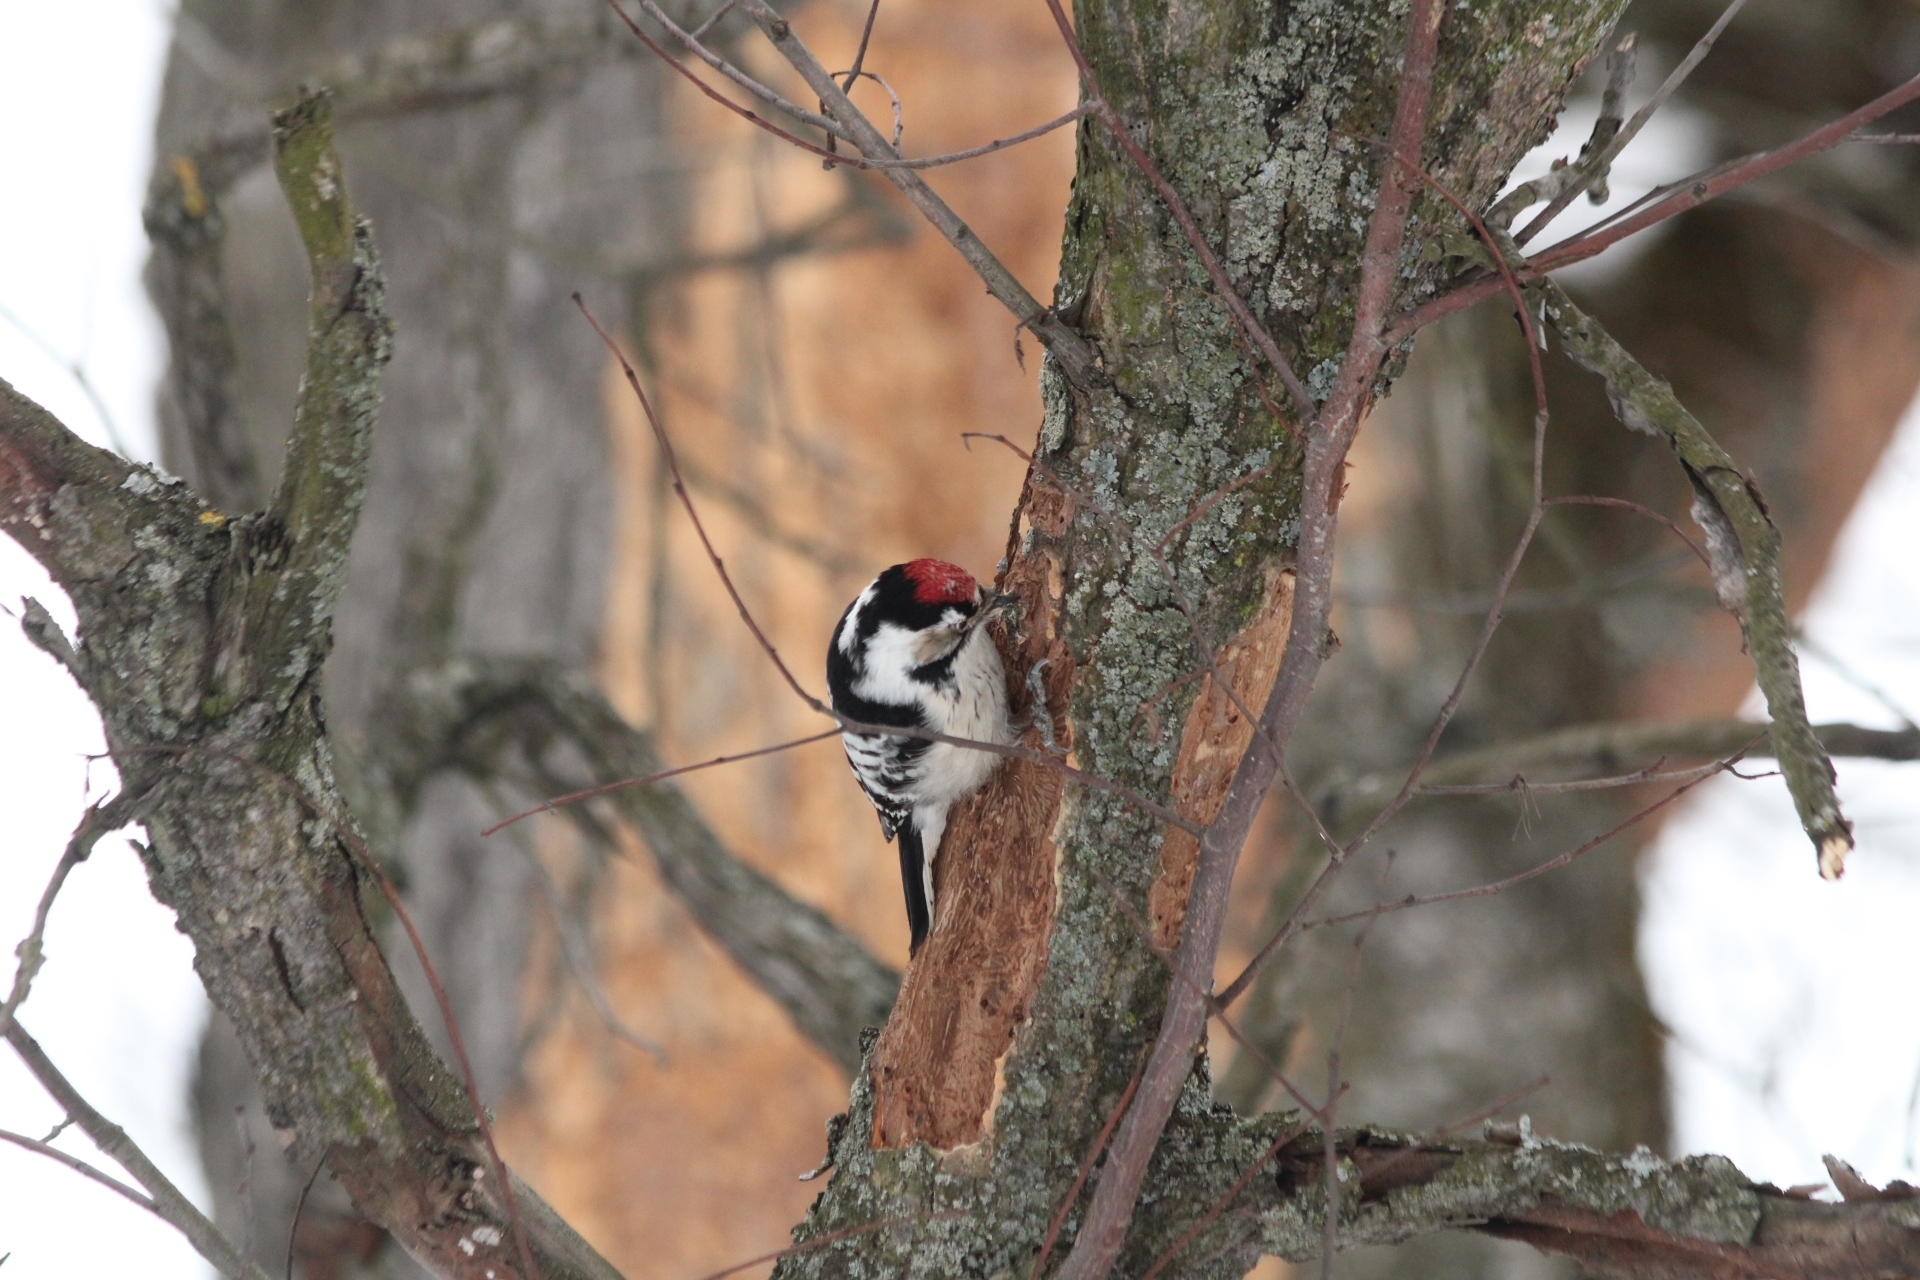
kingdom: Animalia
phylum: Chordata
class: Aves
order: Piciformes
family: Picidae
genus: Dryobates
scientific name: Dryobates minor
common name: Lesser spotted woodpecker
